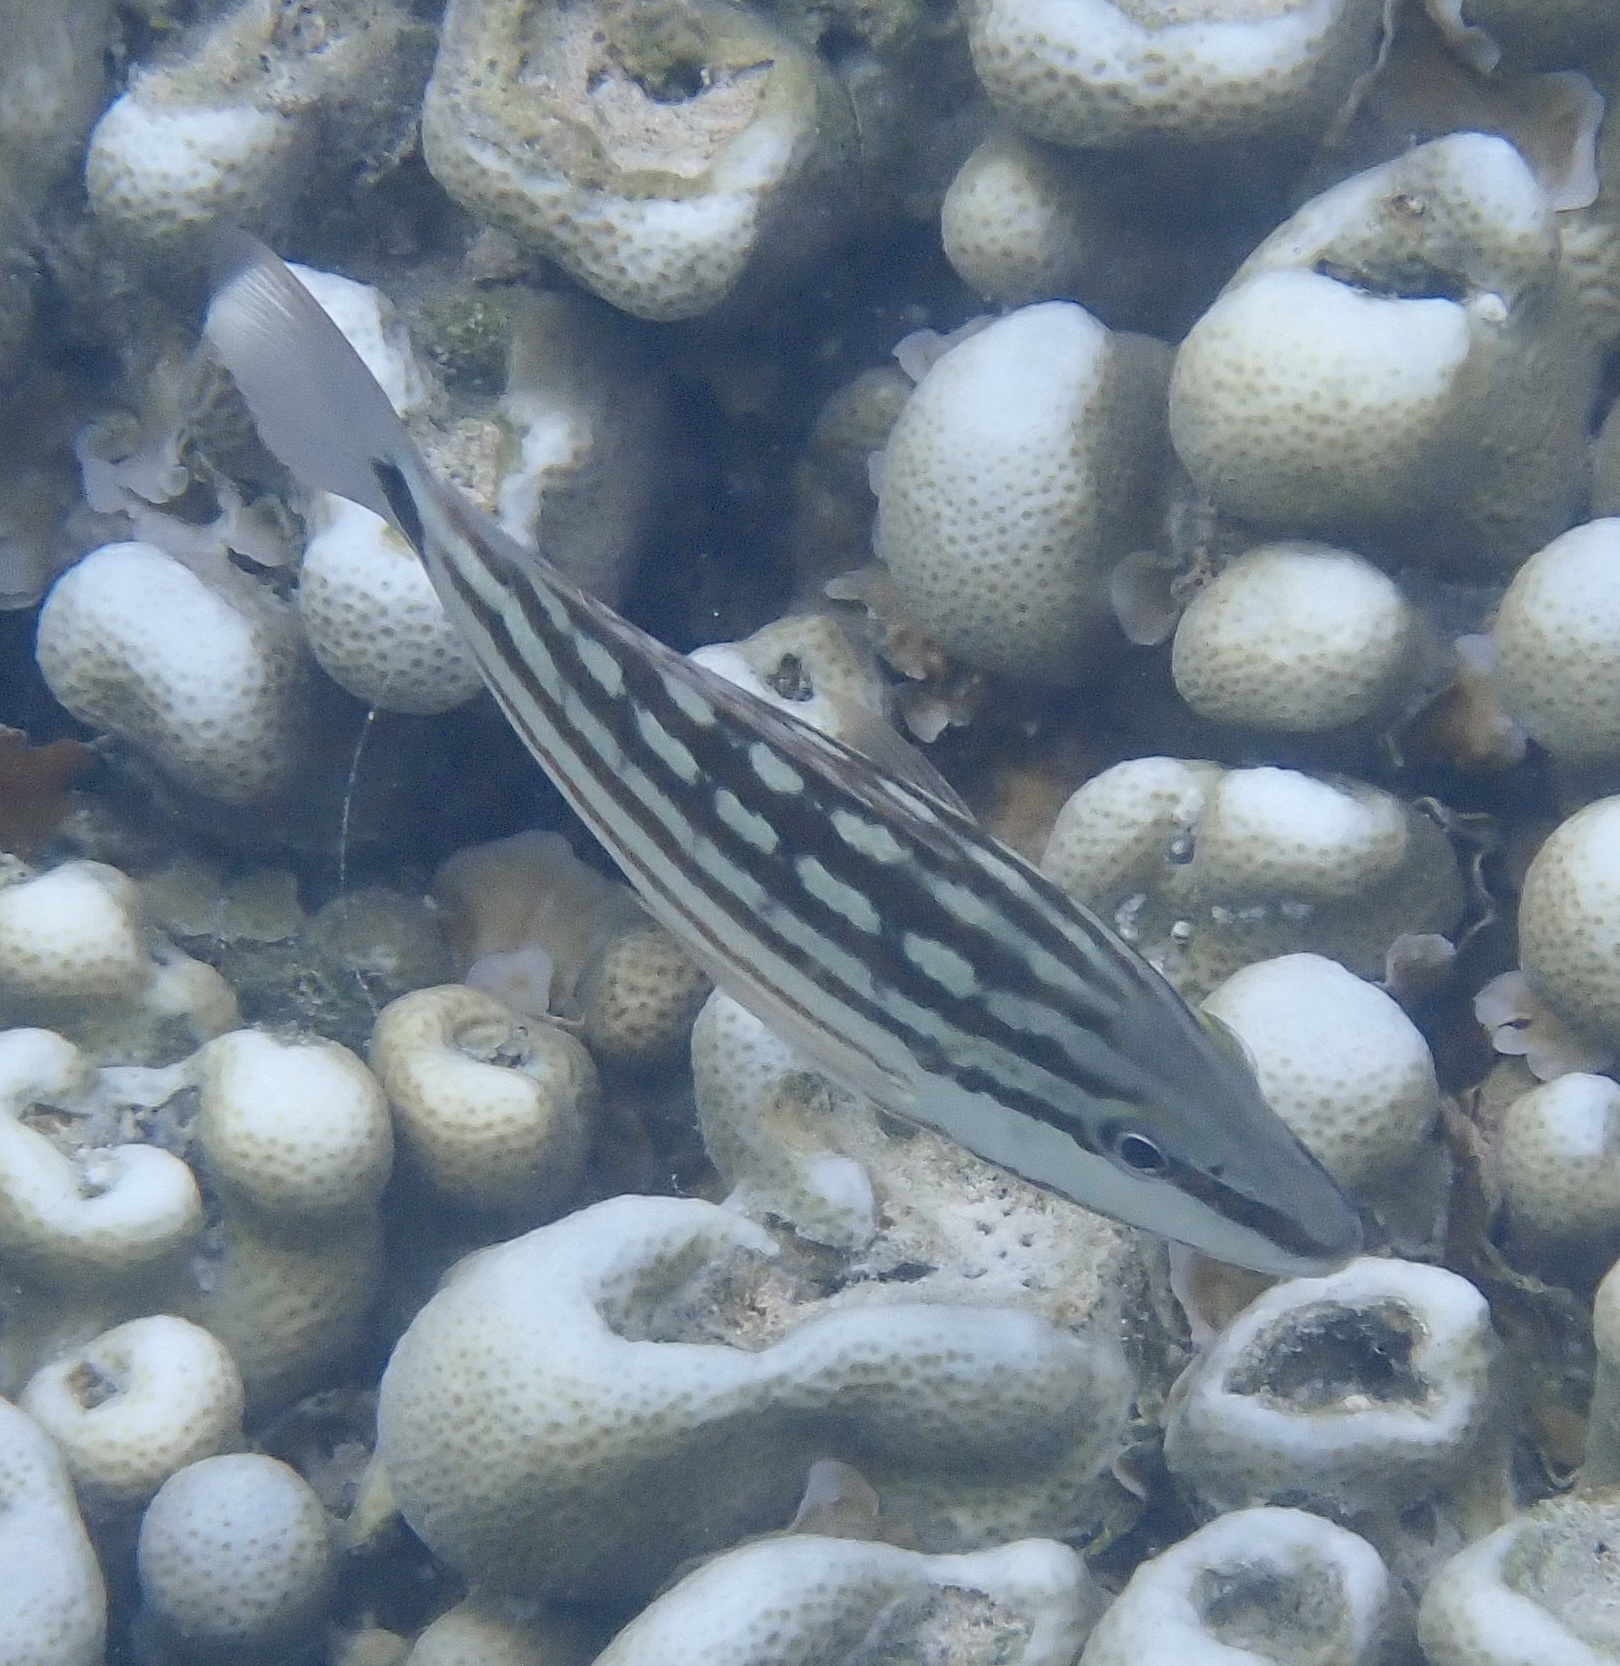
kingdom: Animalia
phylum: Chordata
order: Perciformes
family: Lutjanidae
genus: Lutjanus
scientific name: Lutjanus decussatus
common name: Checkered snapper
